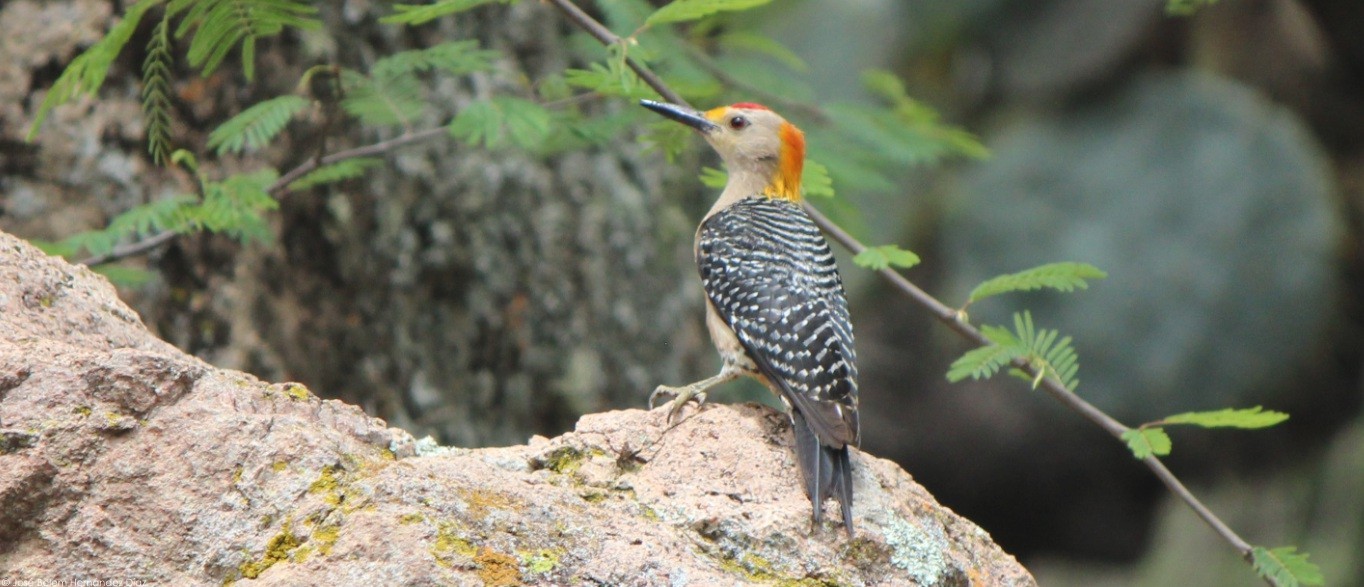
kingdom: Animalia
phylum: Chordata
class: Aves
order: Piciformes
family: Picidae
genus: Melanerpes
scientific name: Melanerpes aurifrons
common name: Golden-fronted woodpecker
